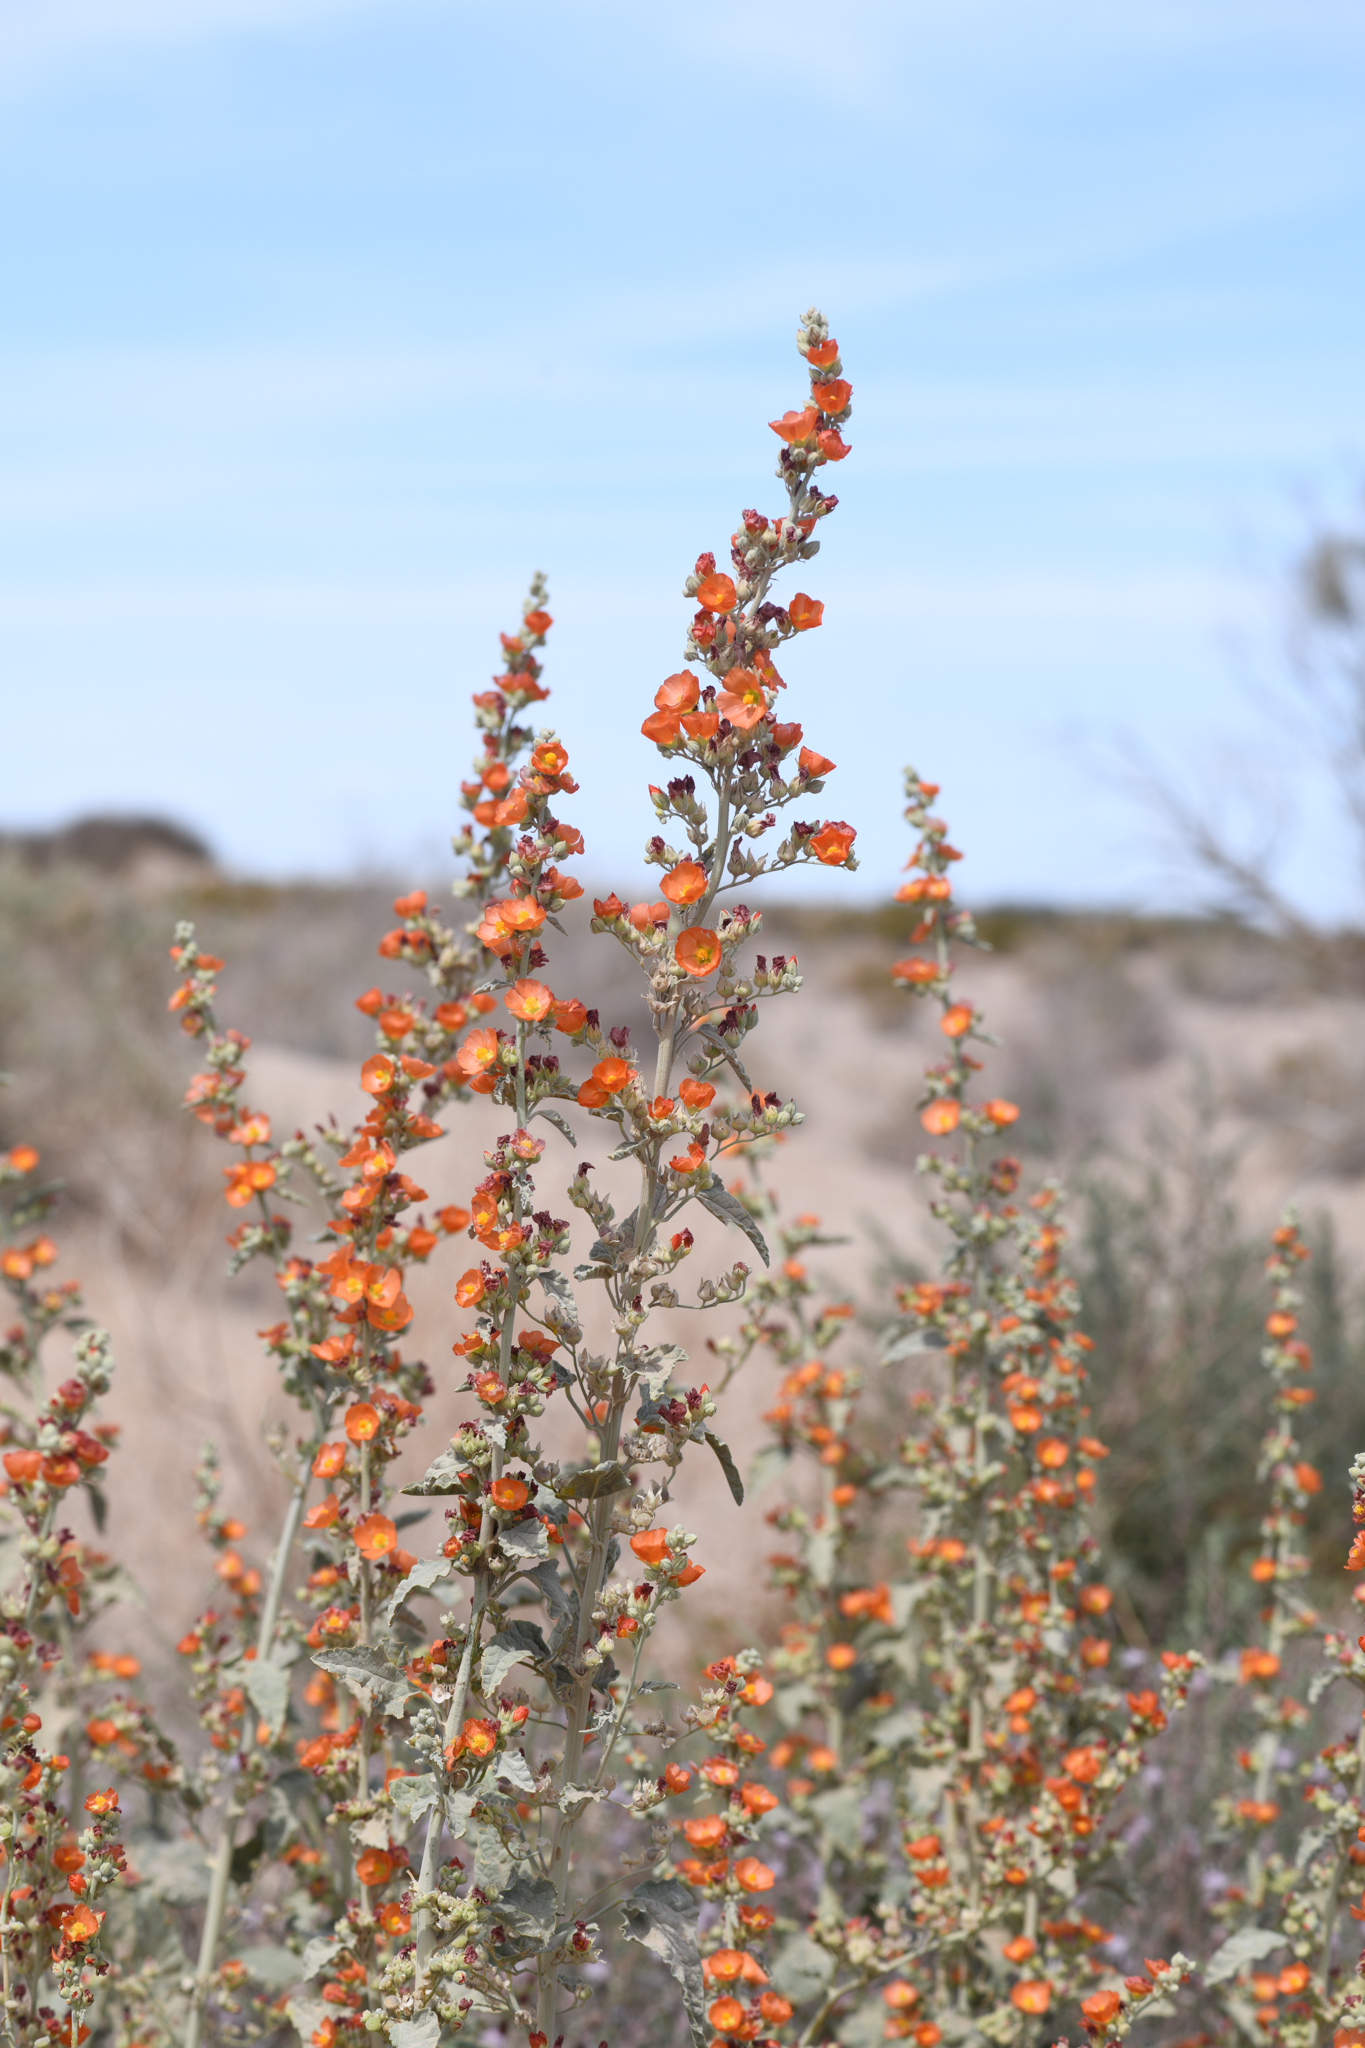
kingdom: Plantae
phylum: Tracheophyta
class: Magnoliopsida
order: Malvales
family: Malvaceae
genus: Sphaeralcea
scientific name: Sphaeralcea orcuttii
